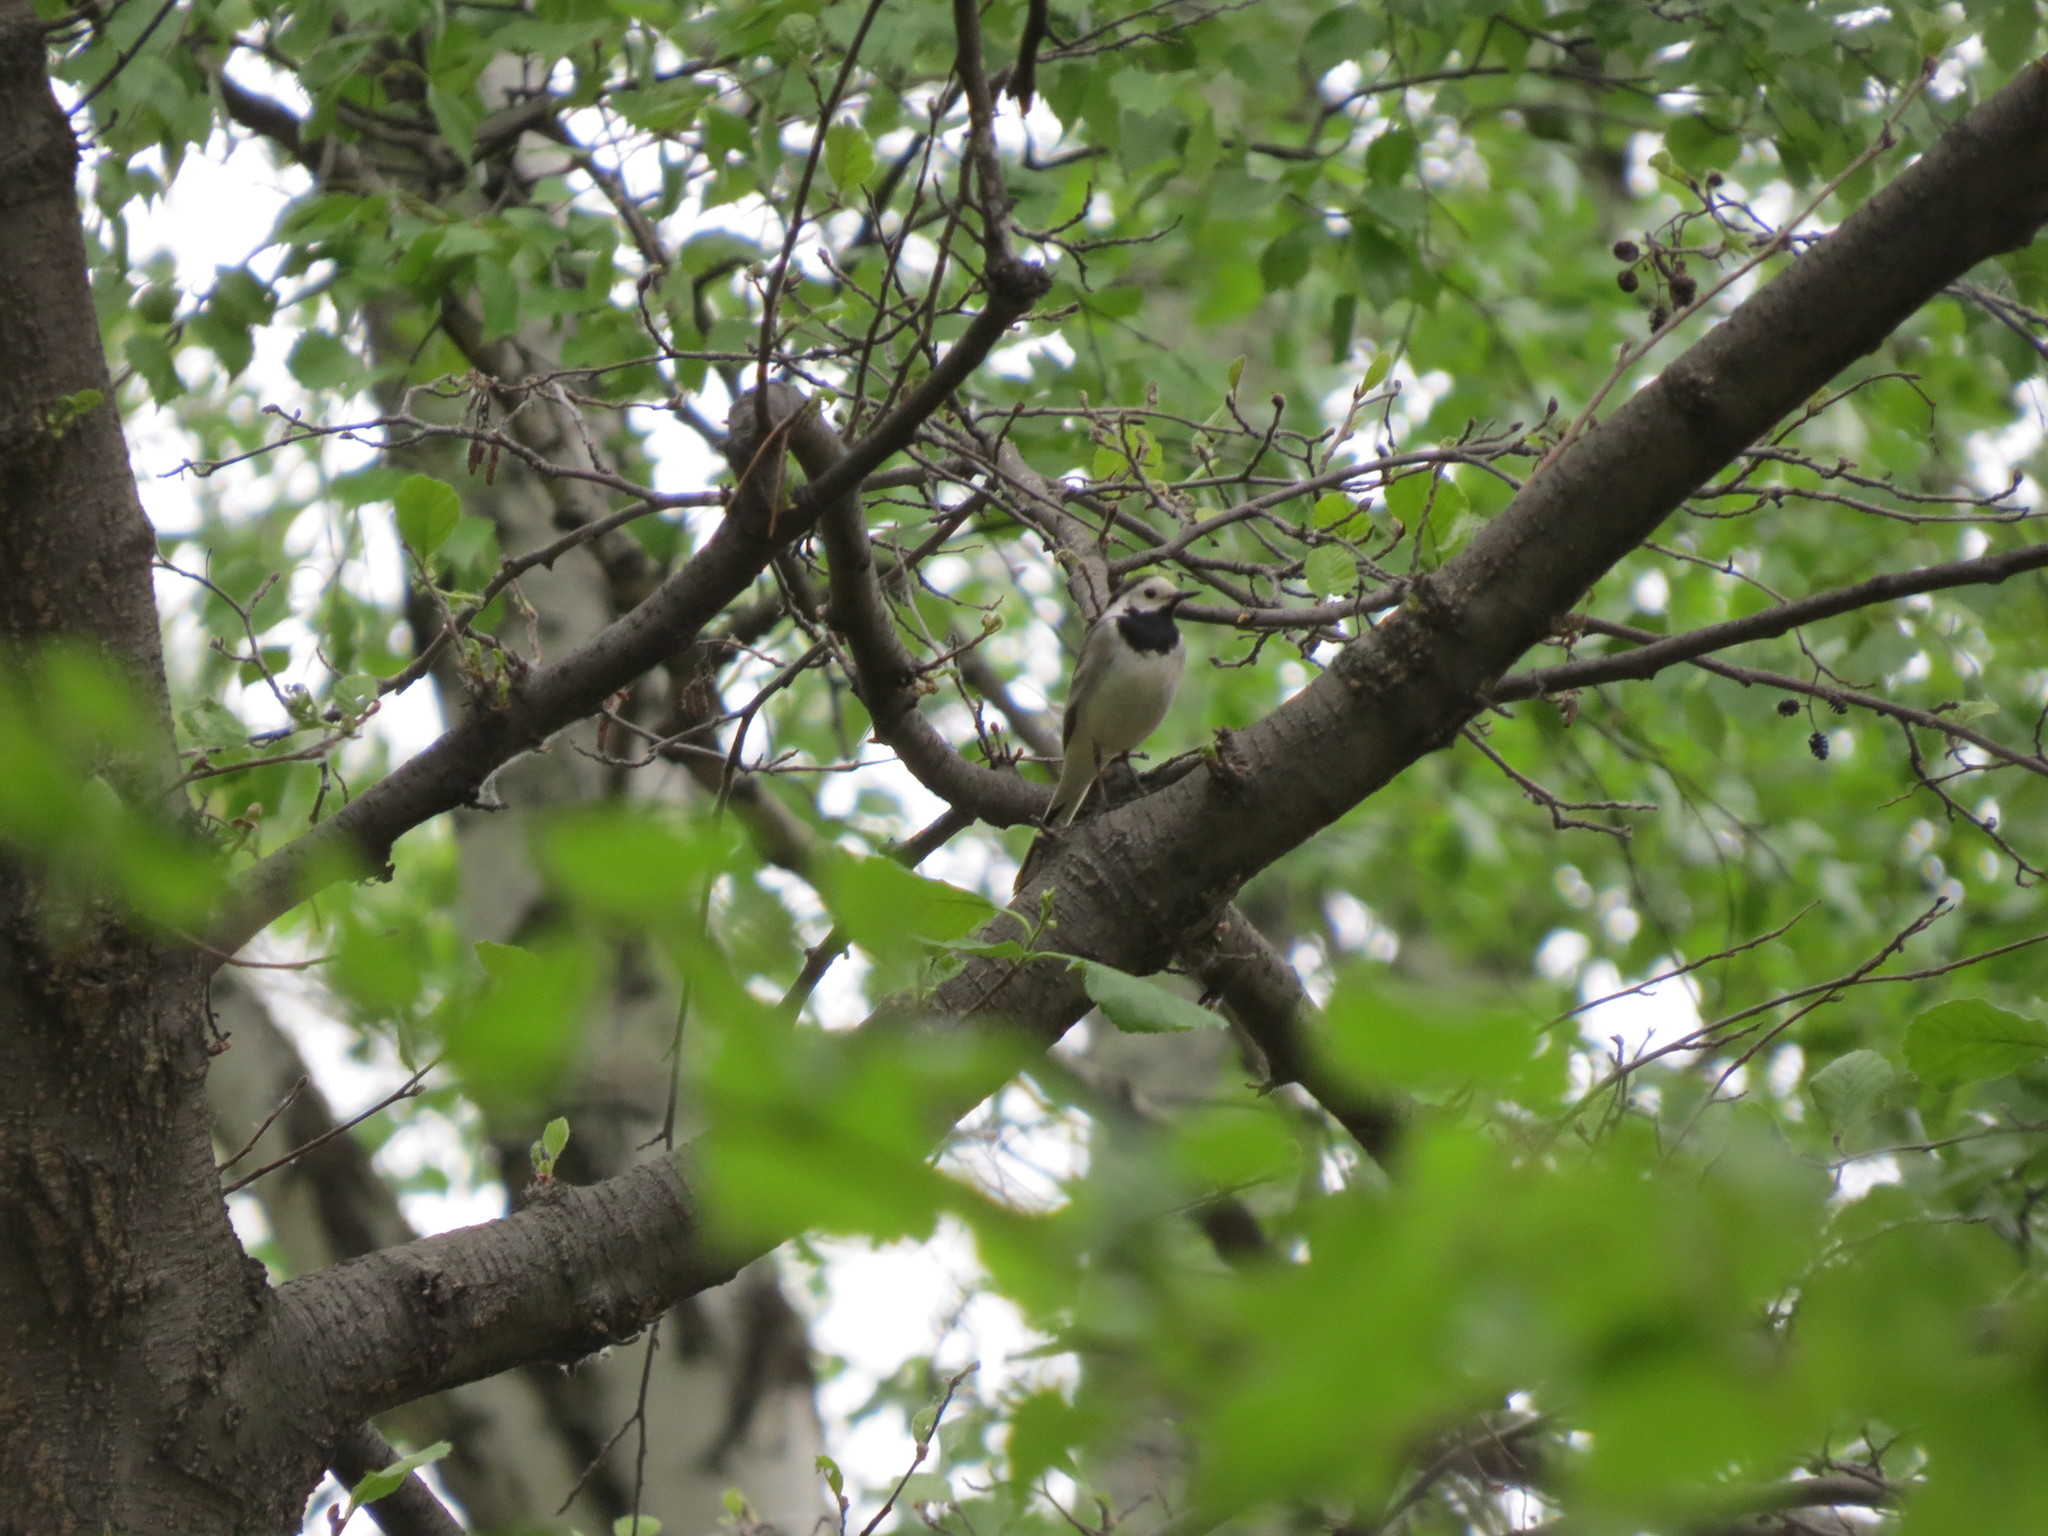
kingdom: Animalia
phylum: Chordata
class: Aves
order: Passeriformes
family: Turdidae
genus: Turdus
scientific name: Turdus iliacus
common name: Redwing
